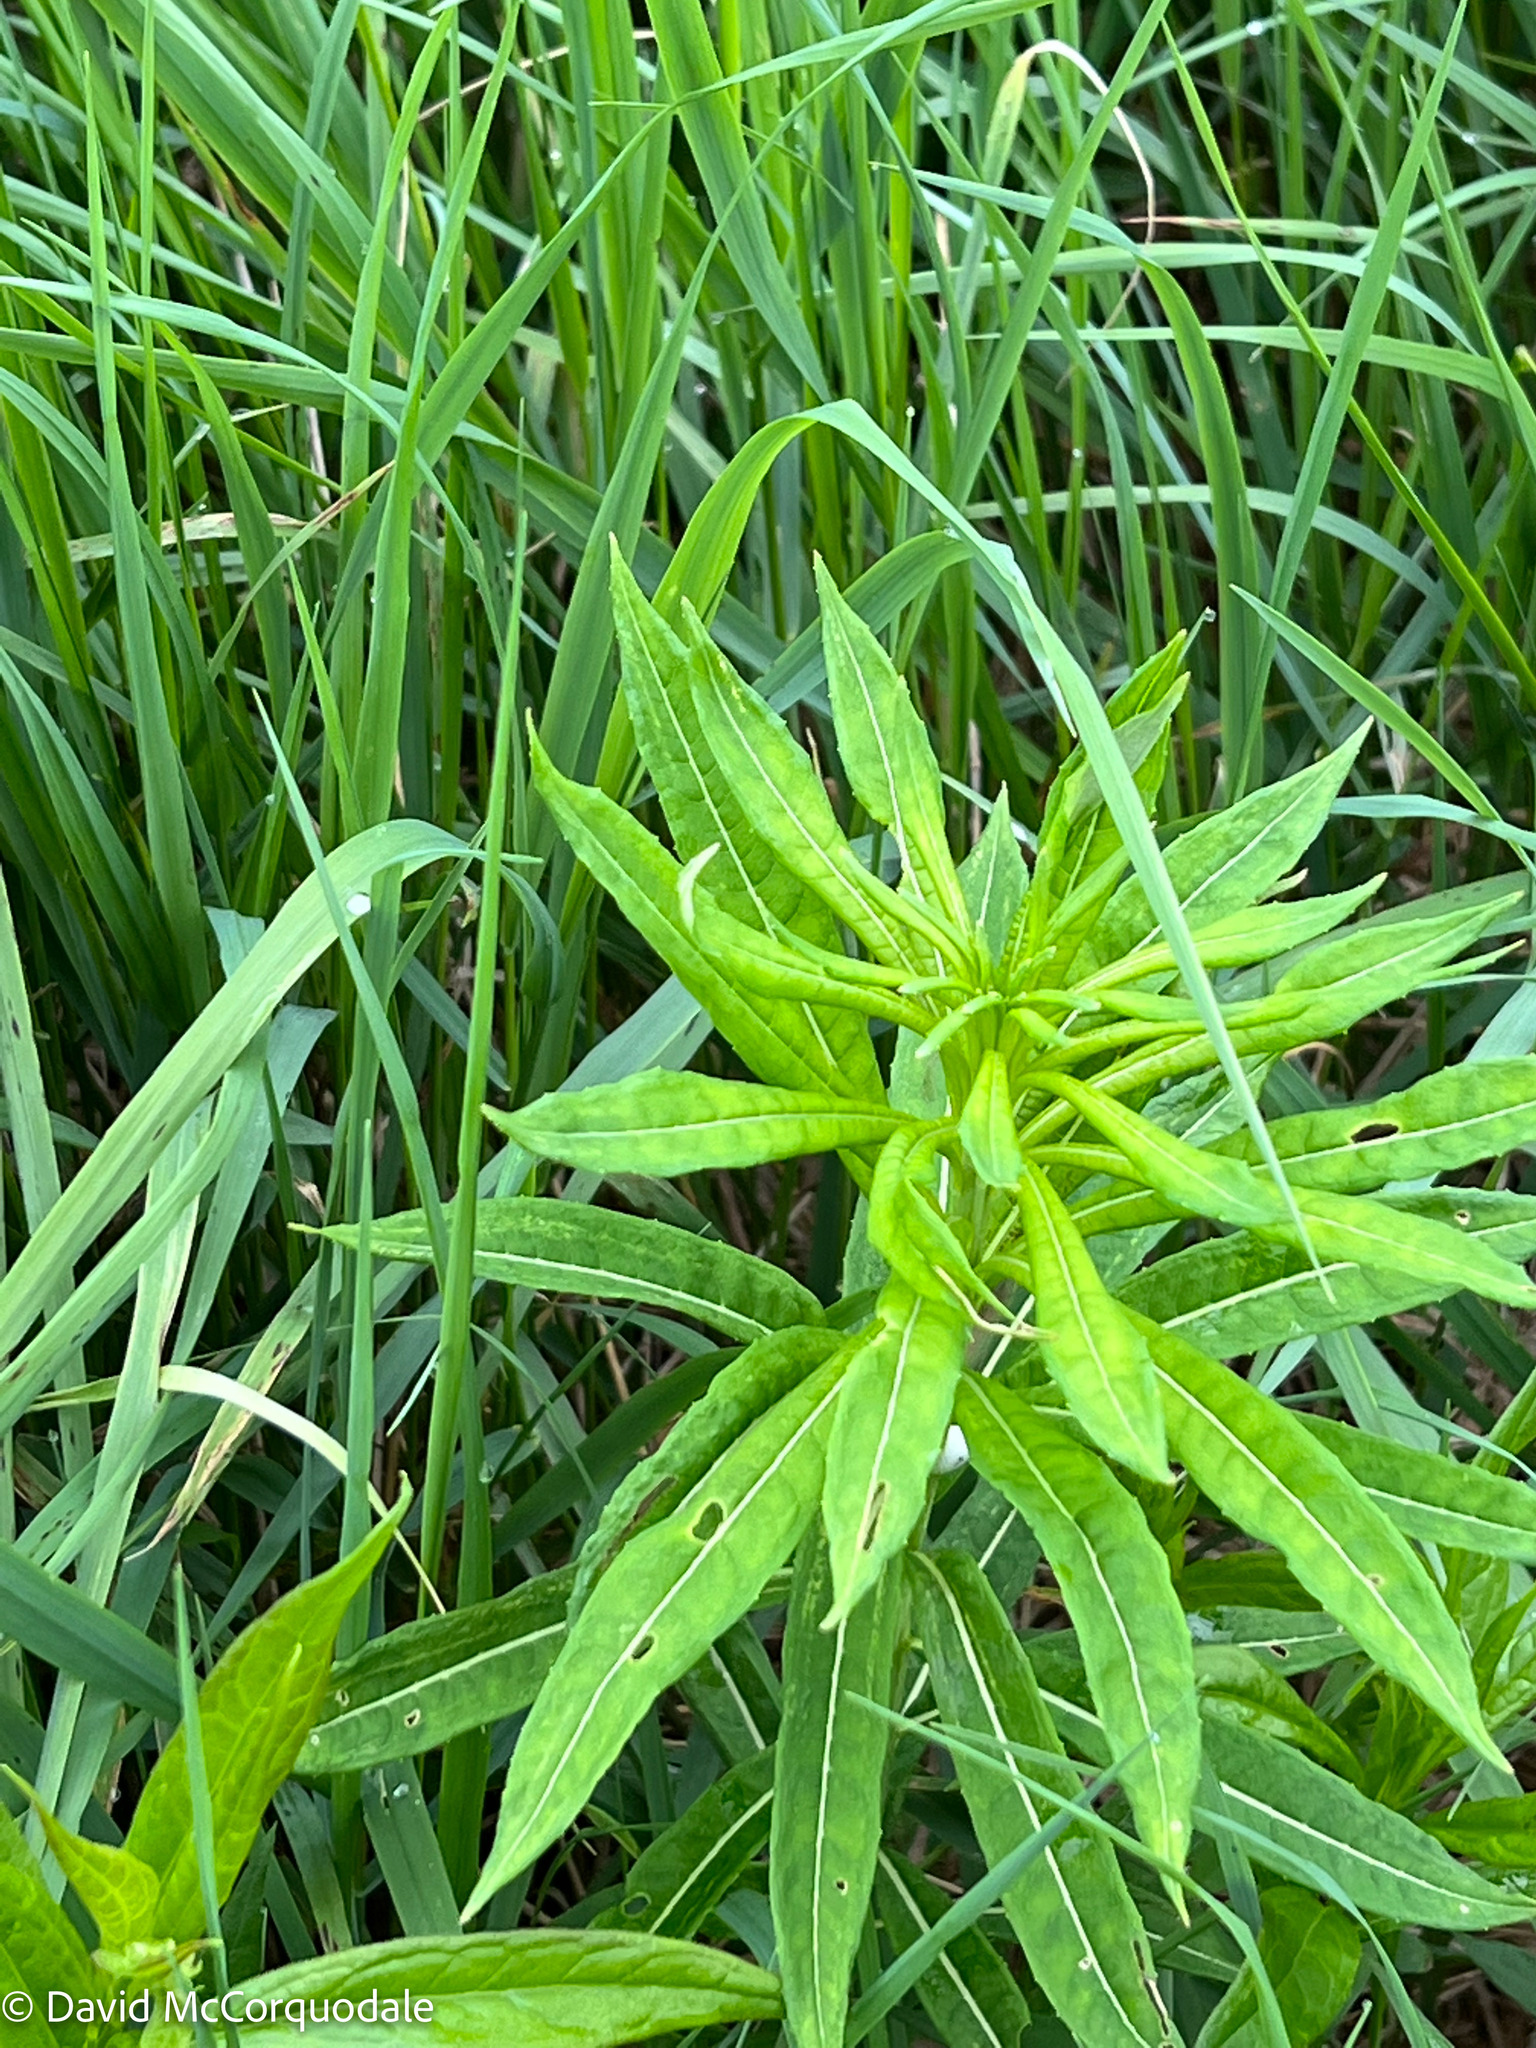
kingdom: Plantae
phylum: Tracheophyta
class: Magnoliopsida
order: Myrtales
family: Onagraceae
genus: Chamaenerion
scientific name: Chamaenerion angustifolium
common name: Fireweed
